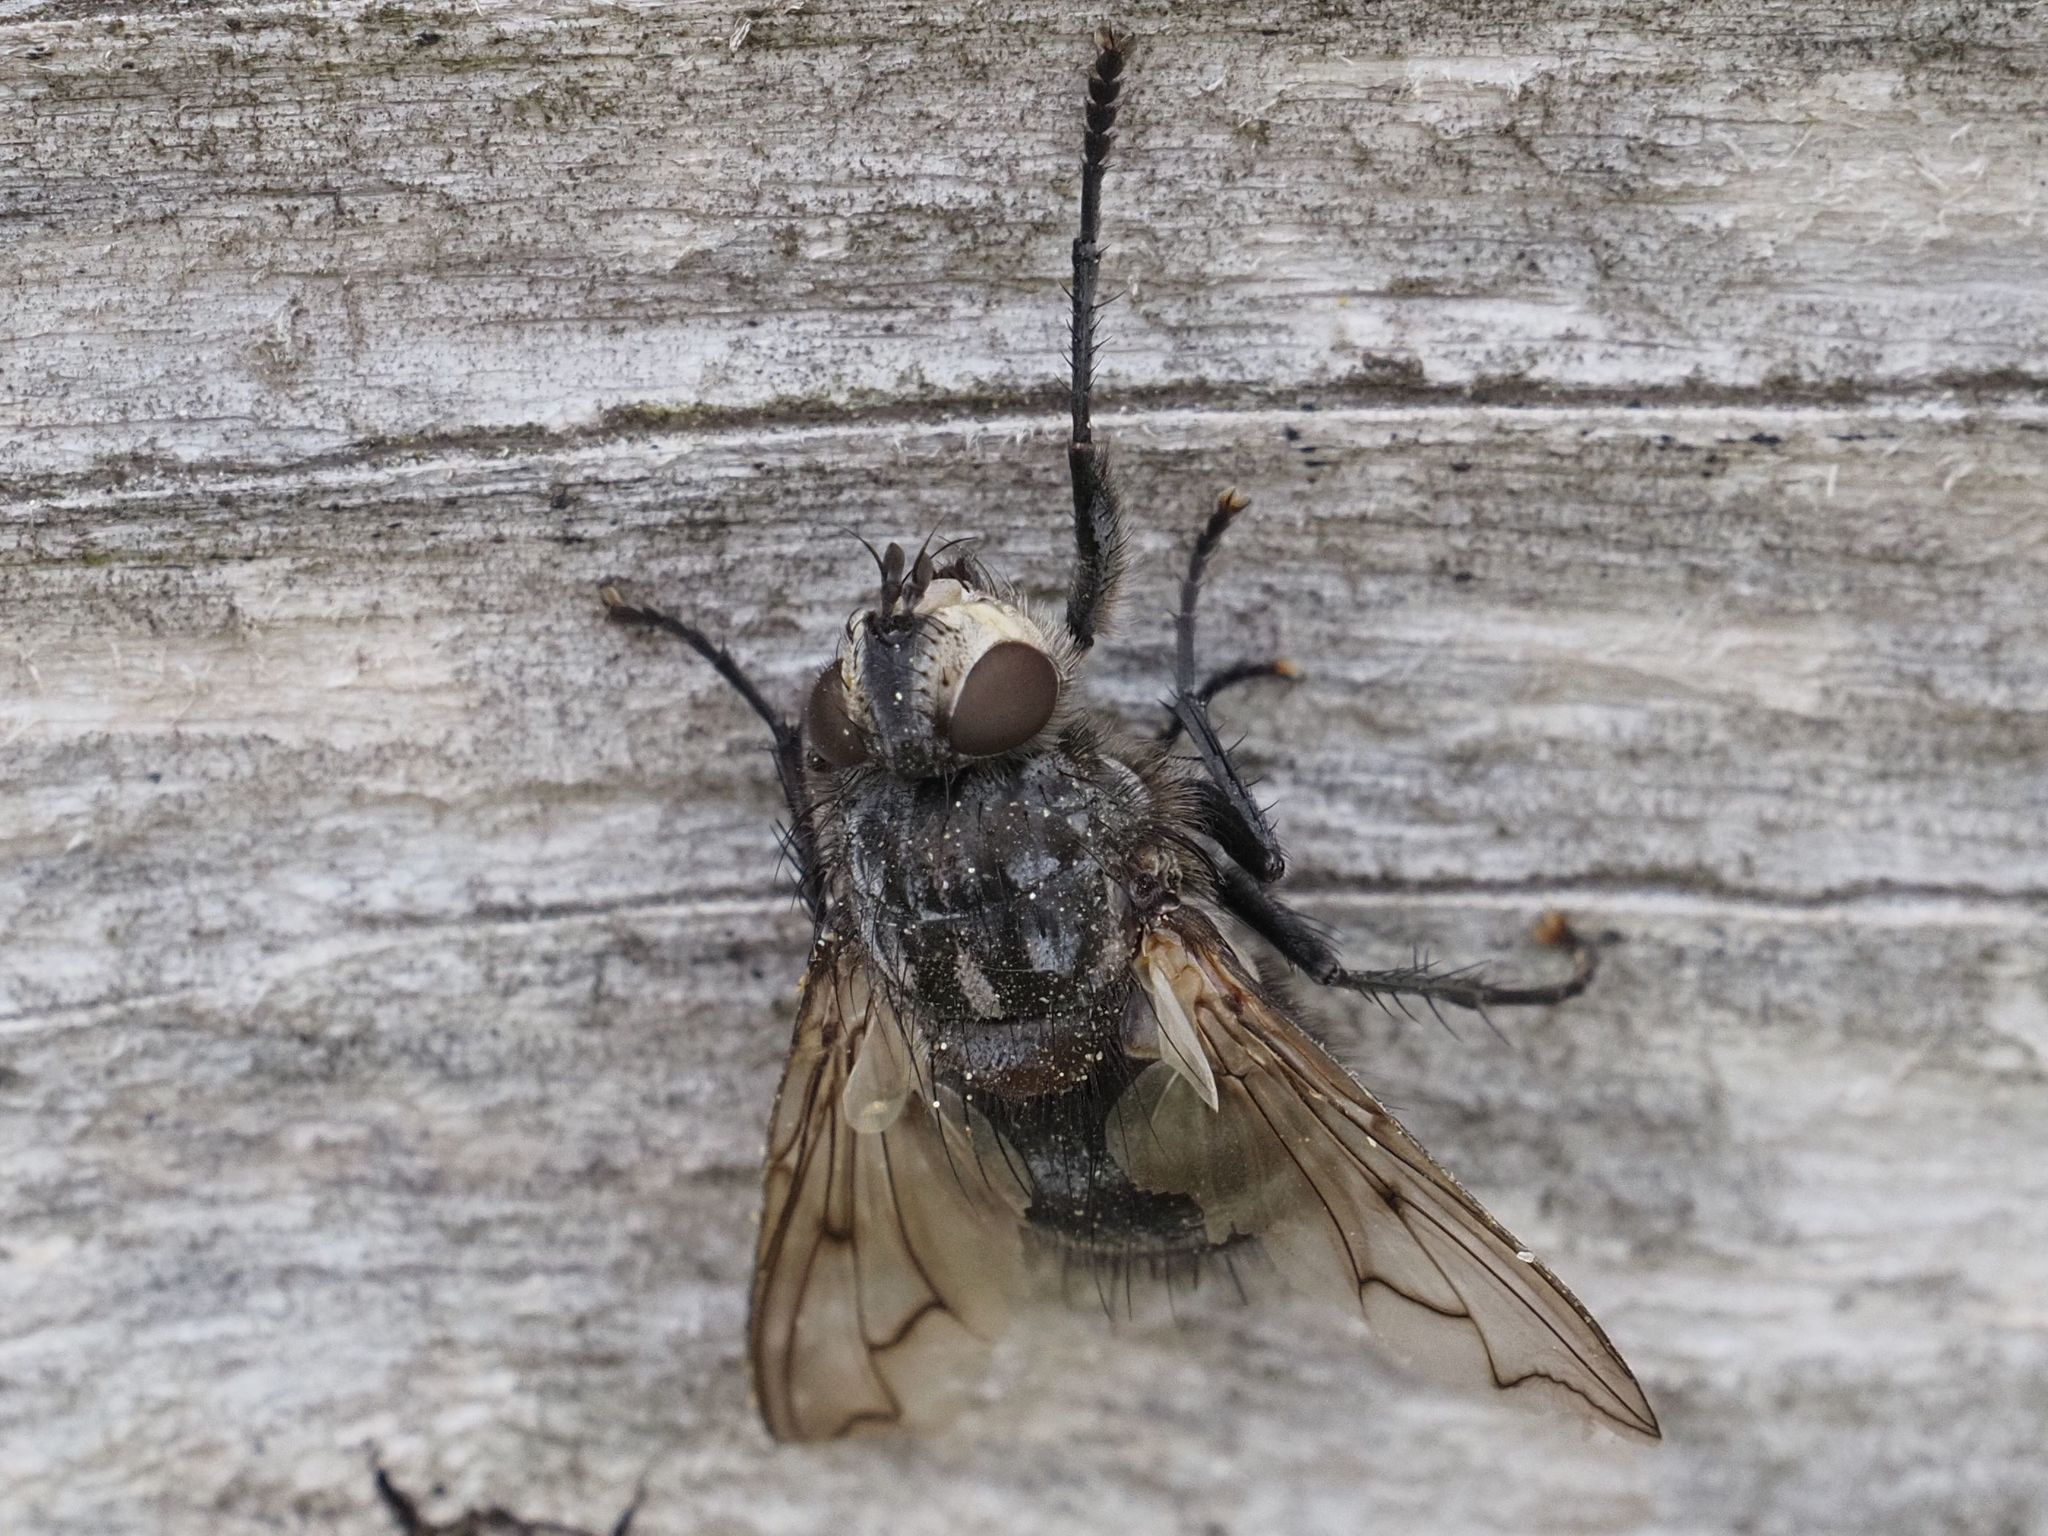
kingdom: Animalia
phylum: Arthropoda
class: Insecta
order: Diptera
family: Tachinidae
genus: Panzeria
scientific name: Panzeria puparum
